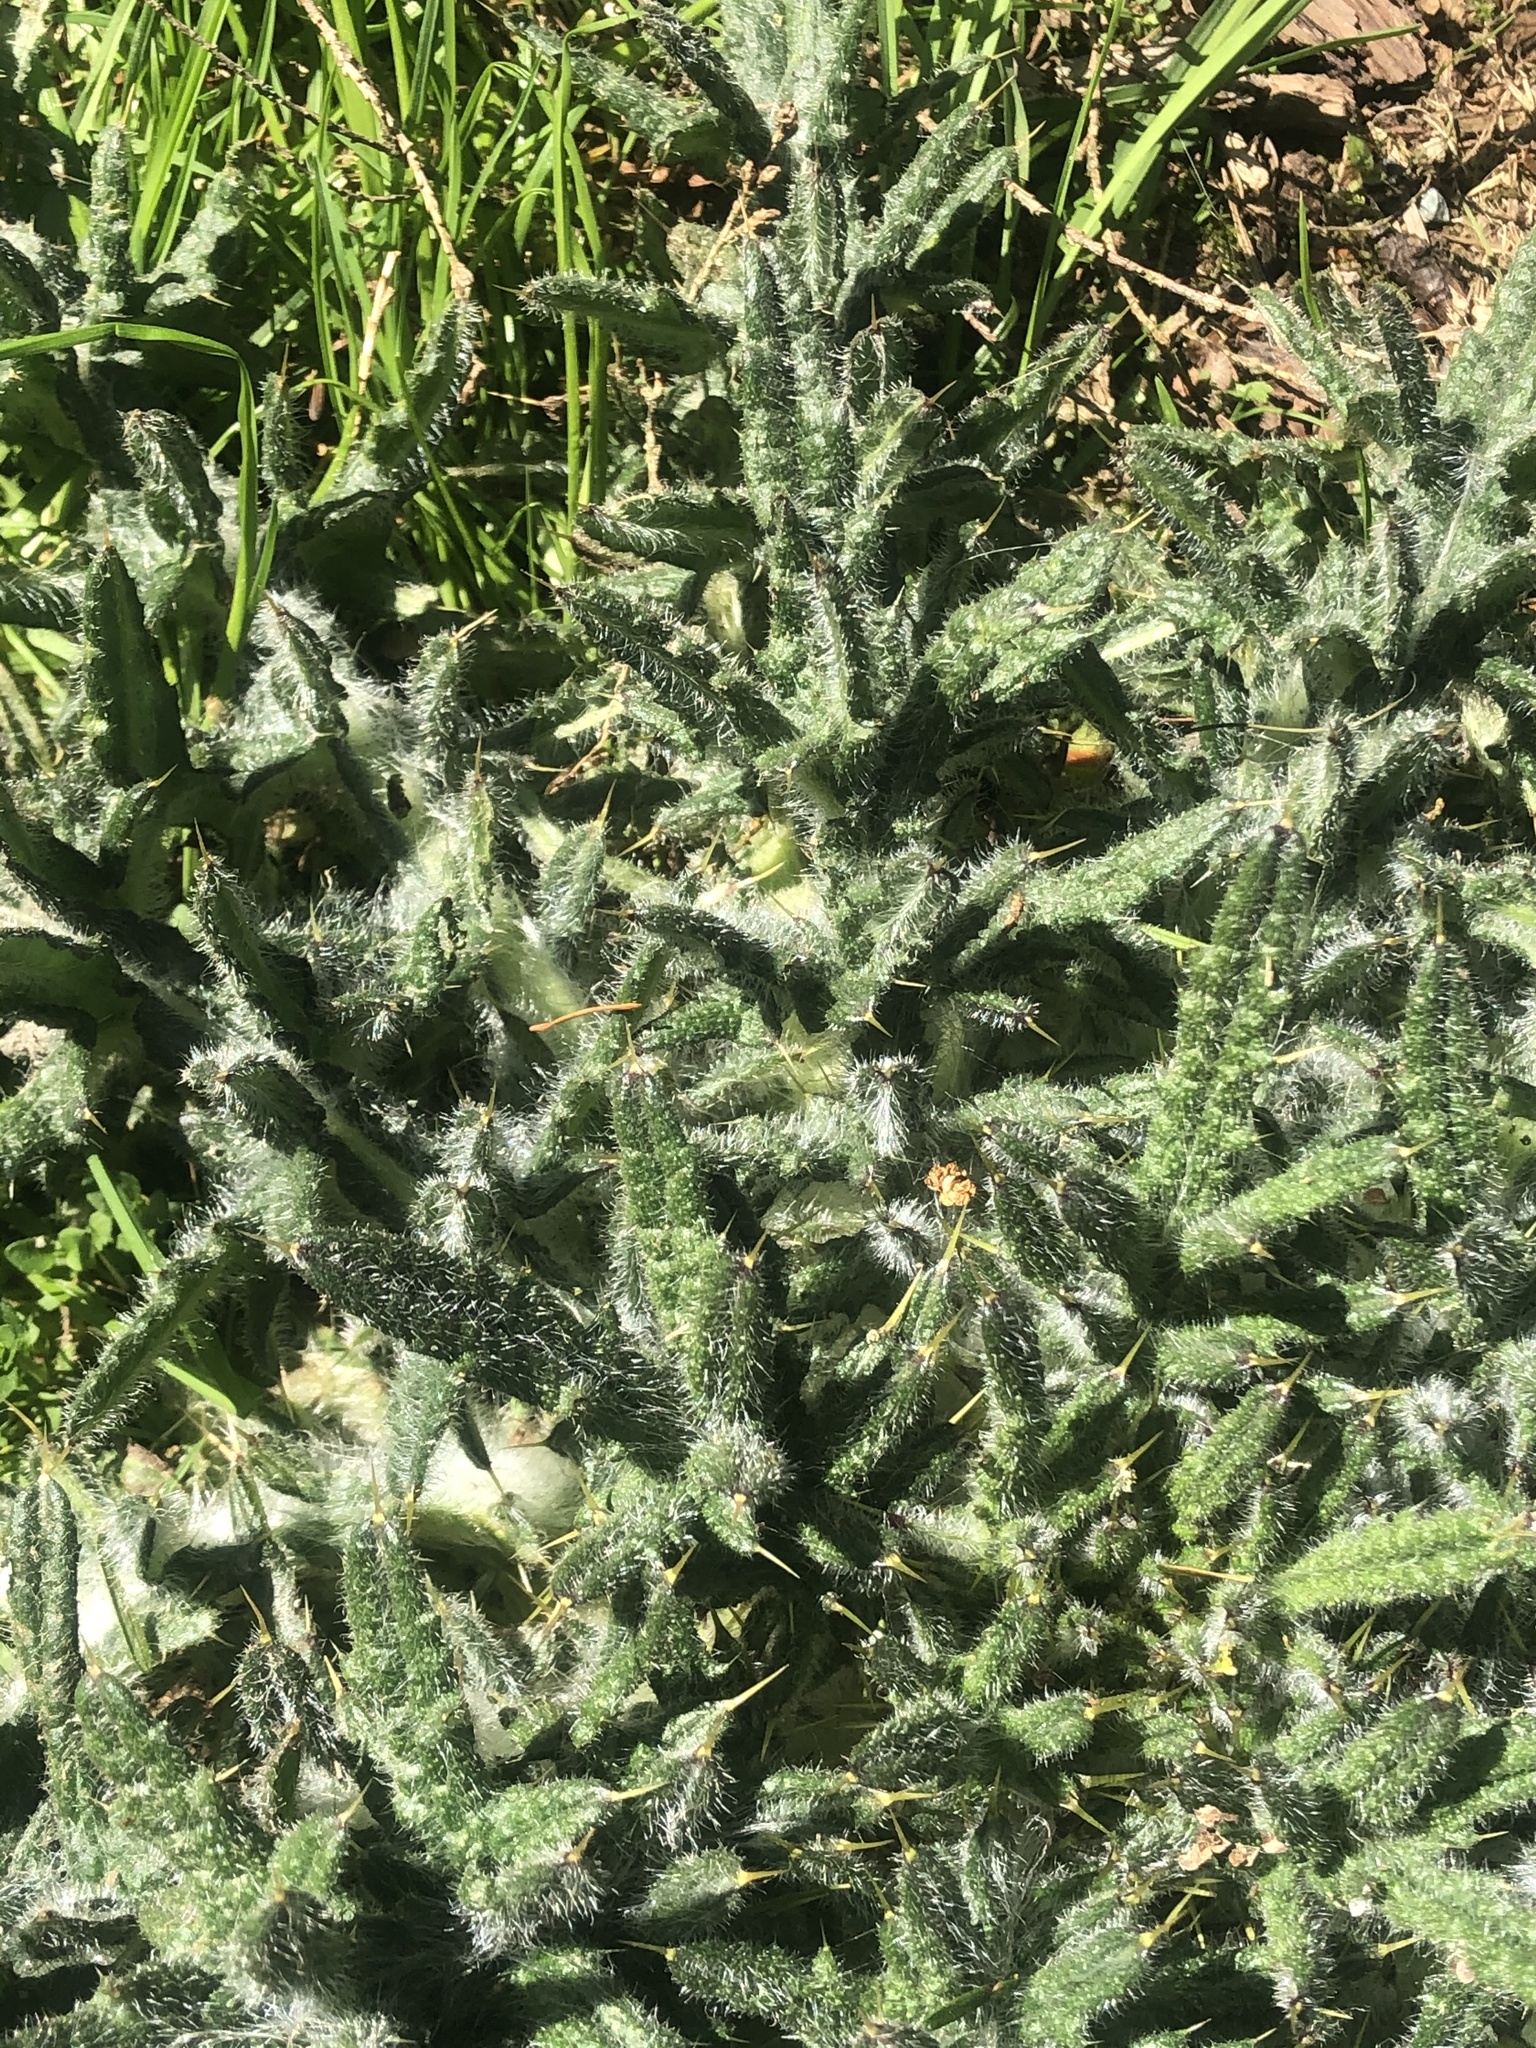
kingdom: Plantae
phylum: Tracheophyta
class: Magnoliopsida
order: Asterales
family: Asteraceae
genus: Cirsium
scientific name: Cirsium vulgare
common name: Bull thistle
